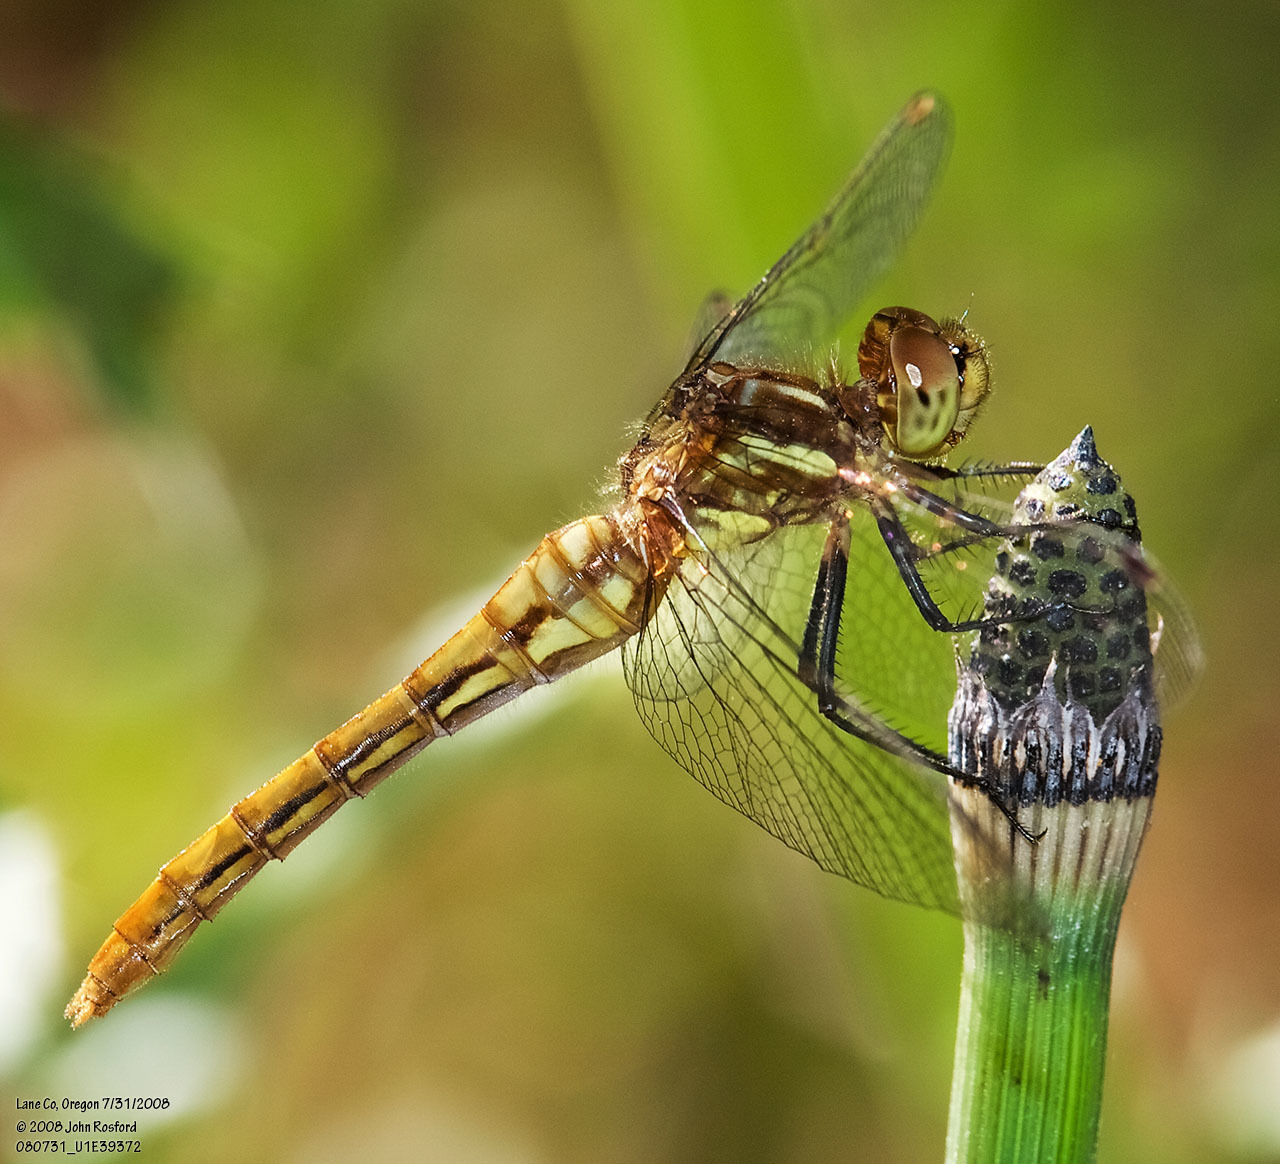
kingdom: Animalia
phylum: Arthropoda
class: Insecta
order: Odonata
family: Libellulidae
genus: Sympetrum
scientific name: Sympetrum pallipes
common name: Striped meadowhawk
